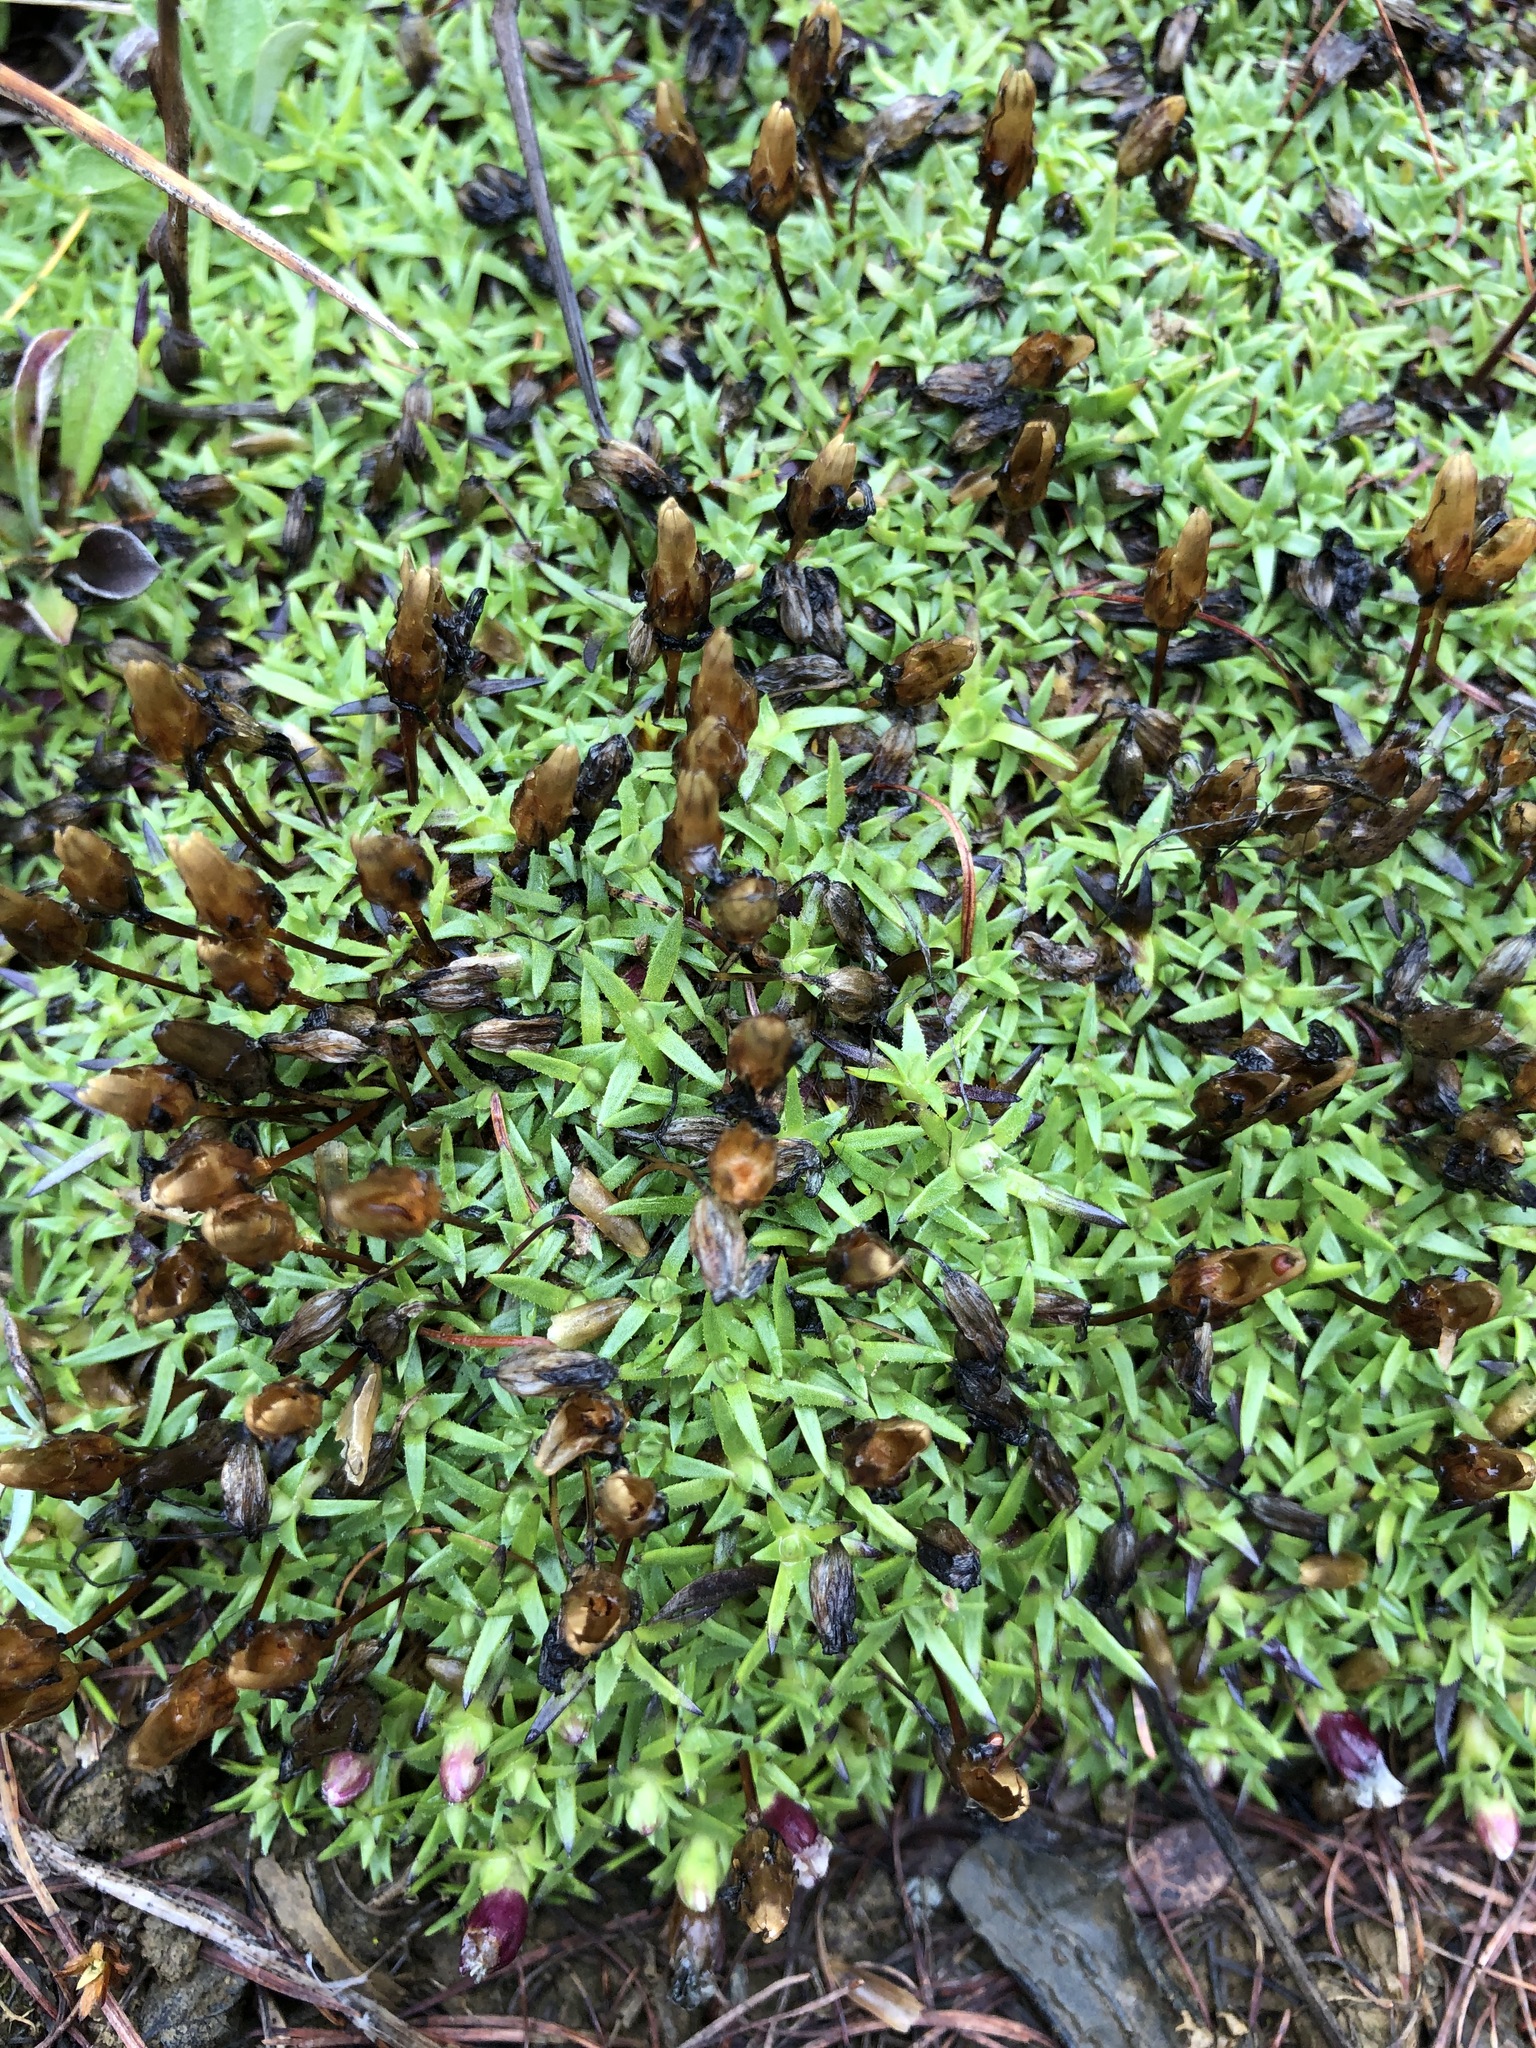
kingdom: Plantae
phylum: Tracheophyta
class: Magnoliopsida
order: Caryophyllales
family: Caryophyllaceae
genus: Silene
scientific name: Silene acaulis
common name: Moss campion
